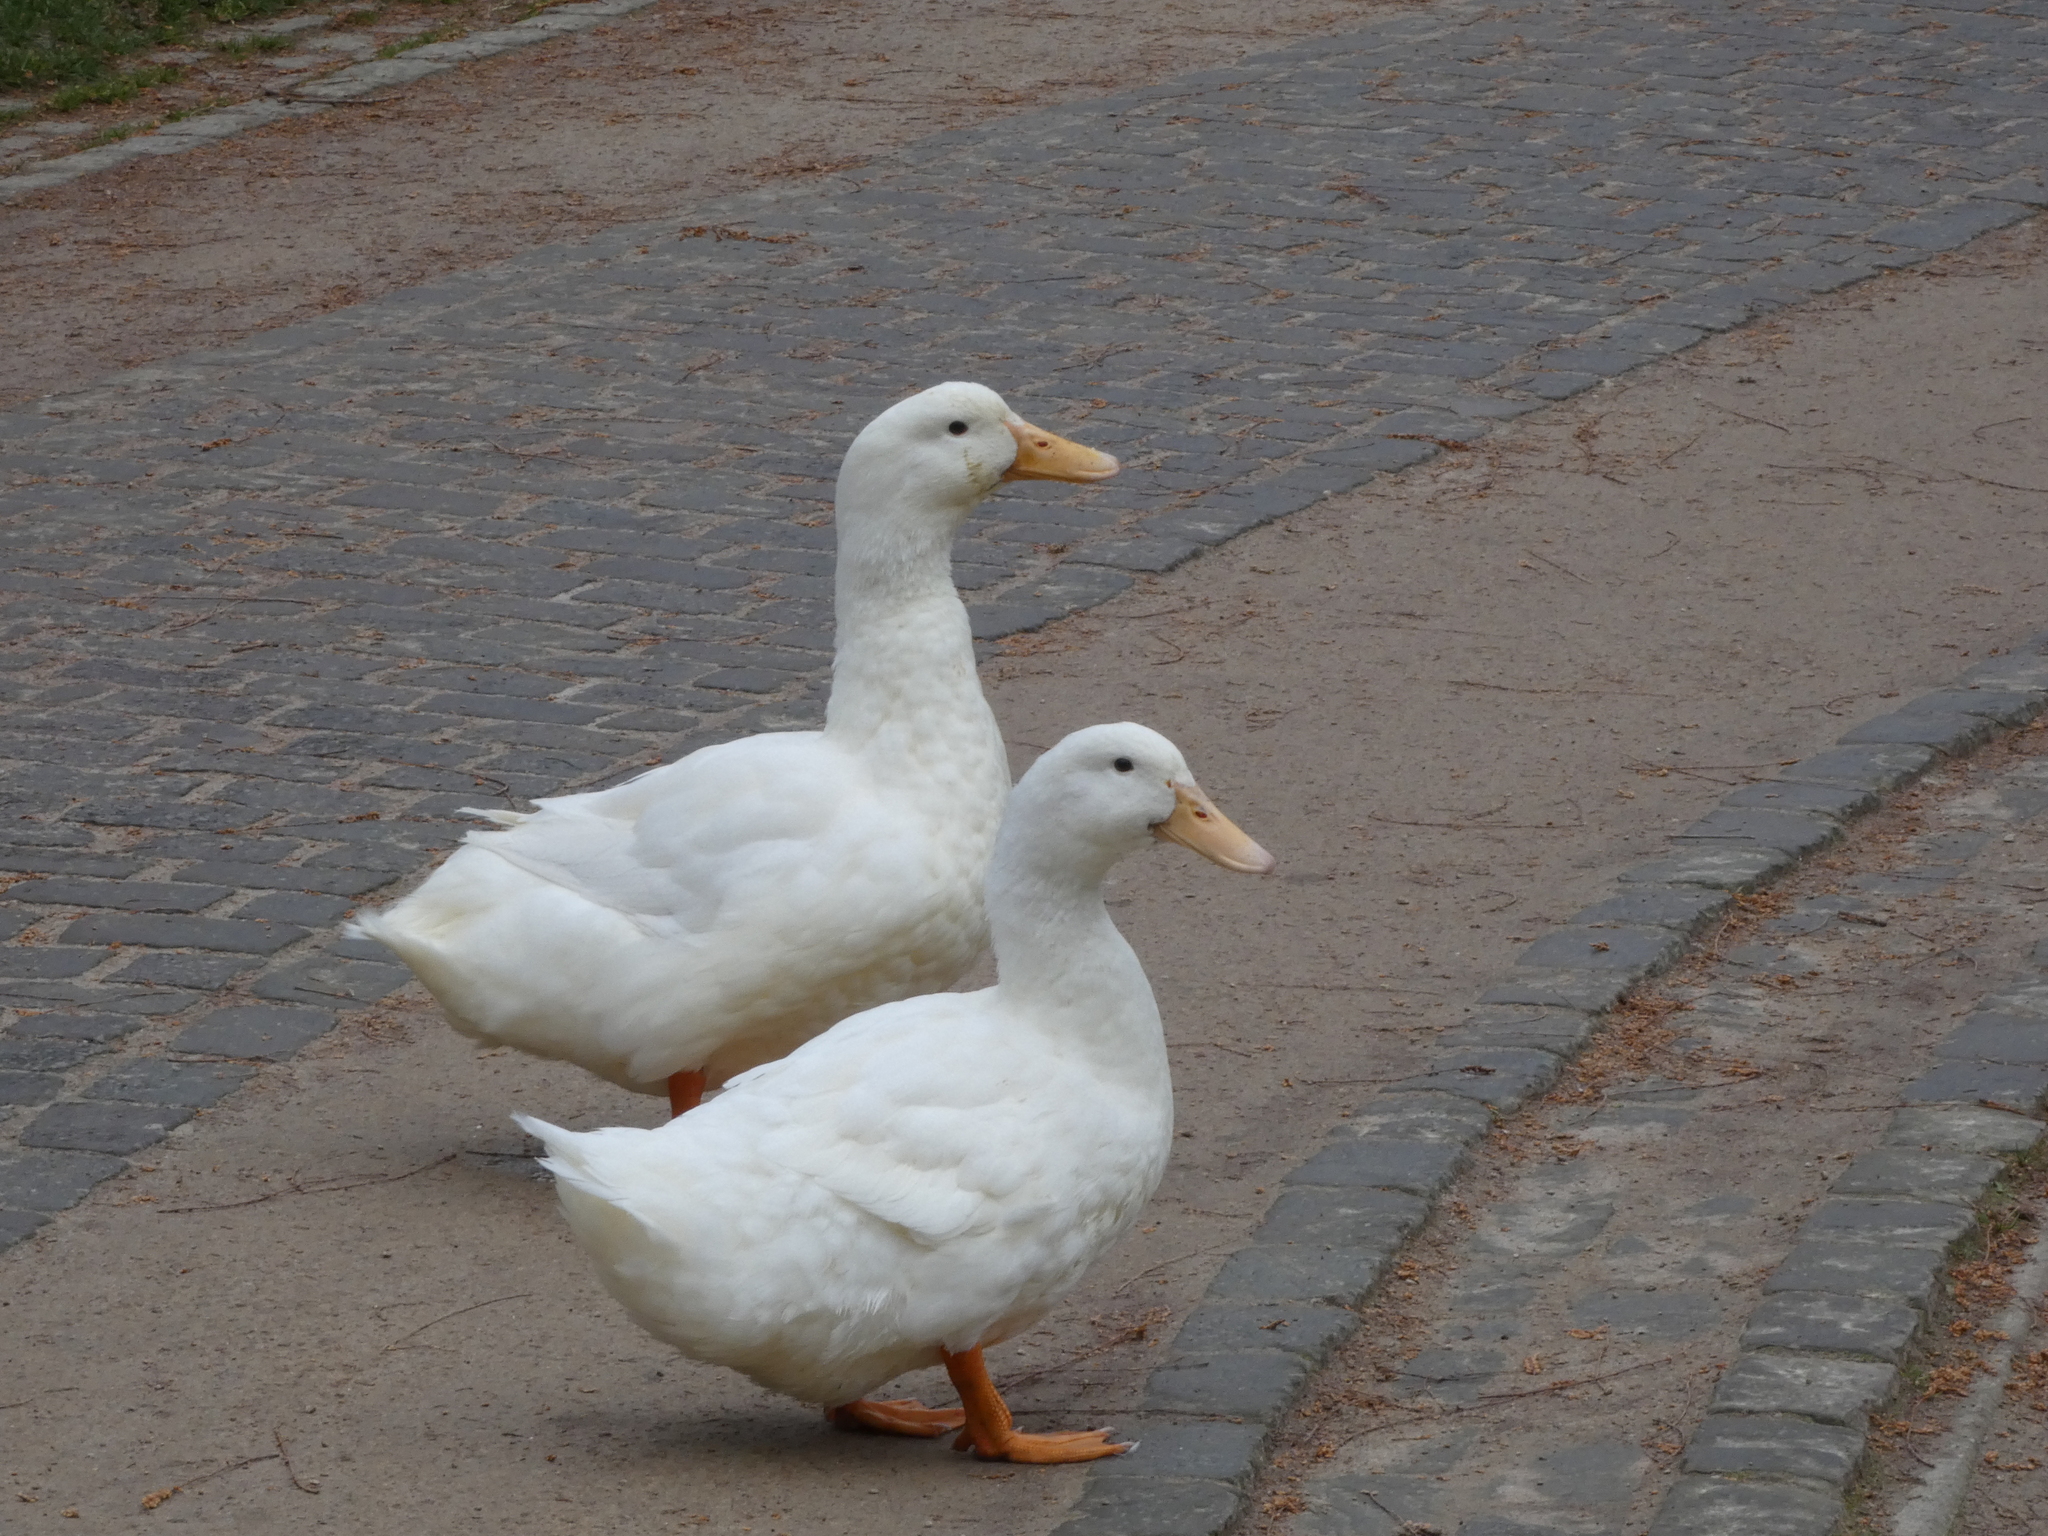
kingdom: Animalia
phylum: Chordata
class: Aves
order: Anseriformes
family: Anatidae
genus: Anas
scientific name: Anas platyrhynchos
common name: Mallard
